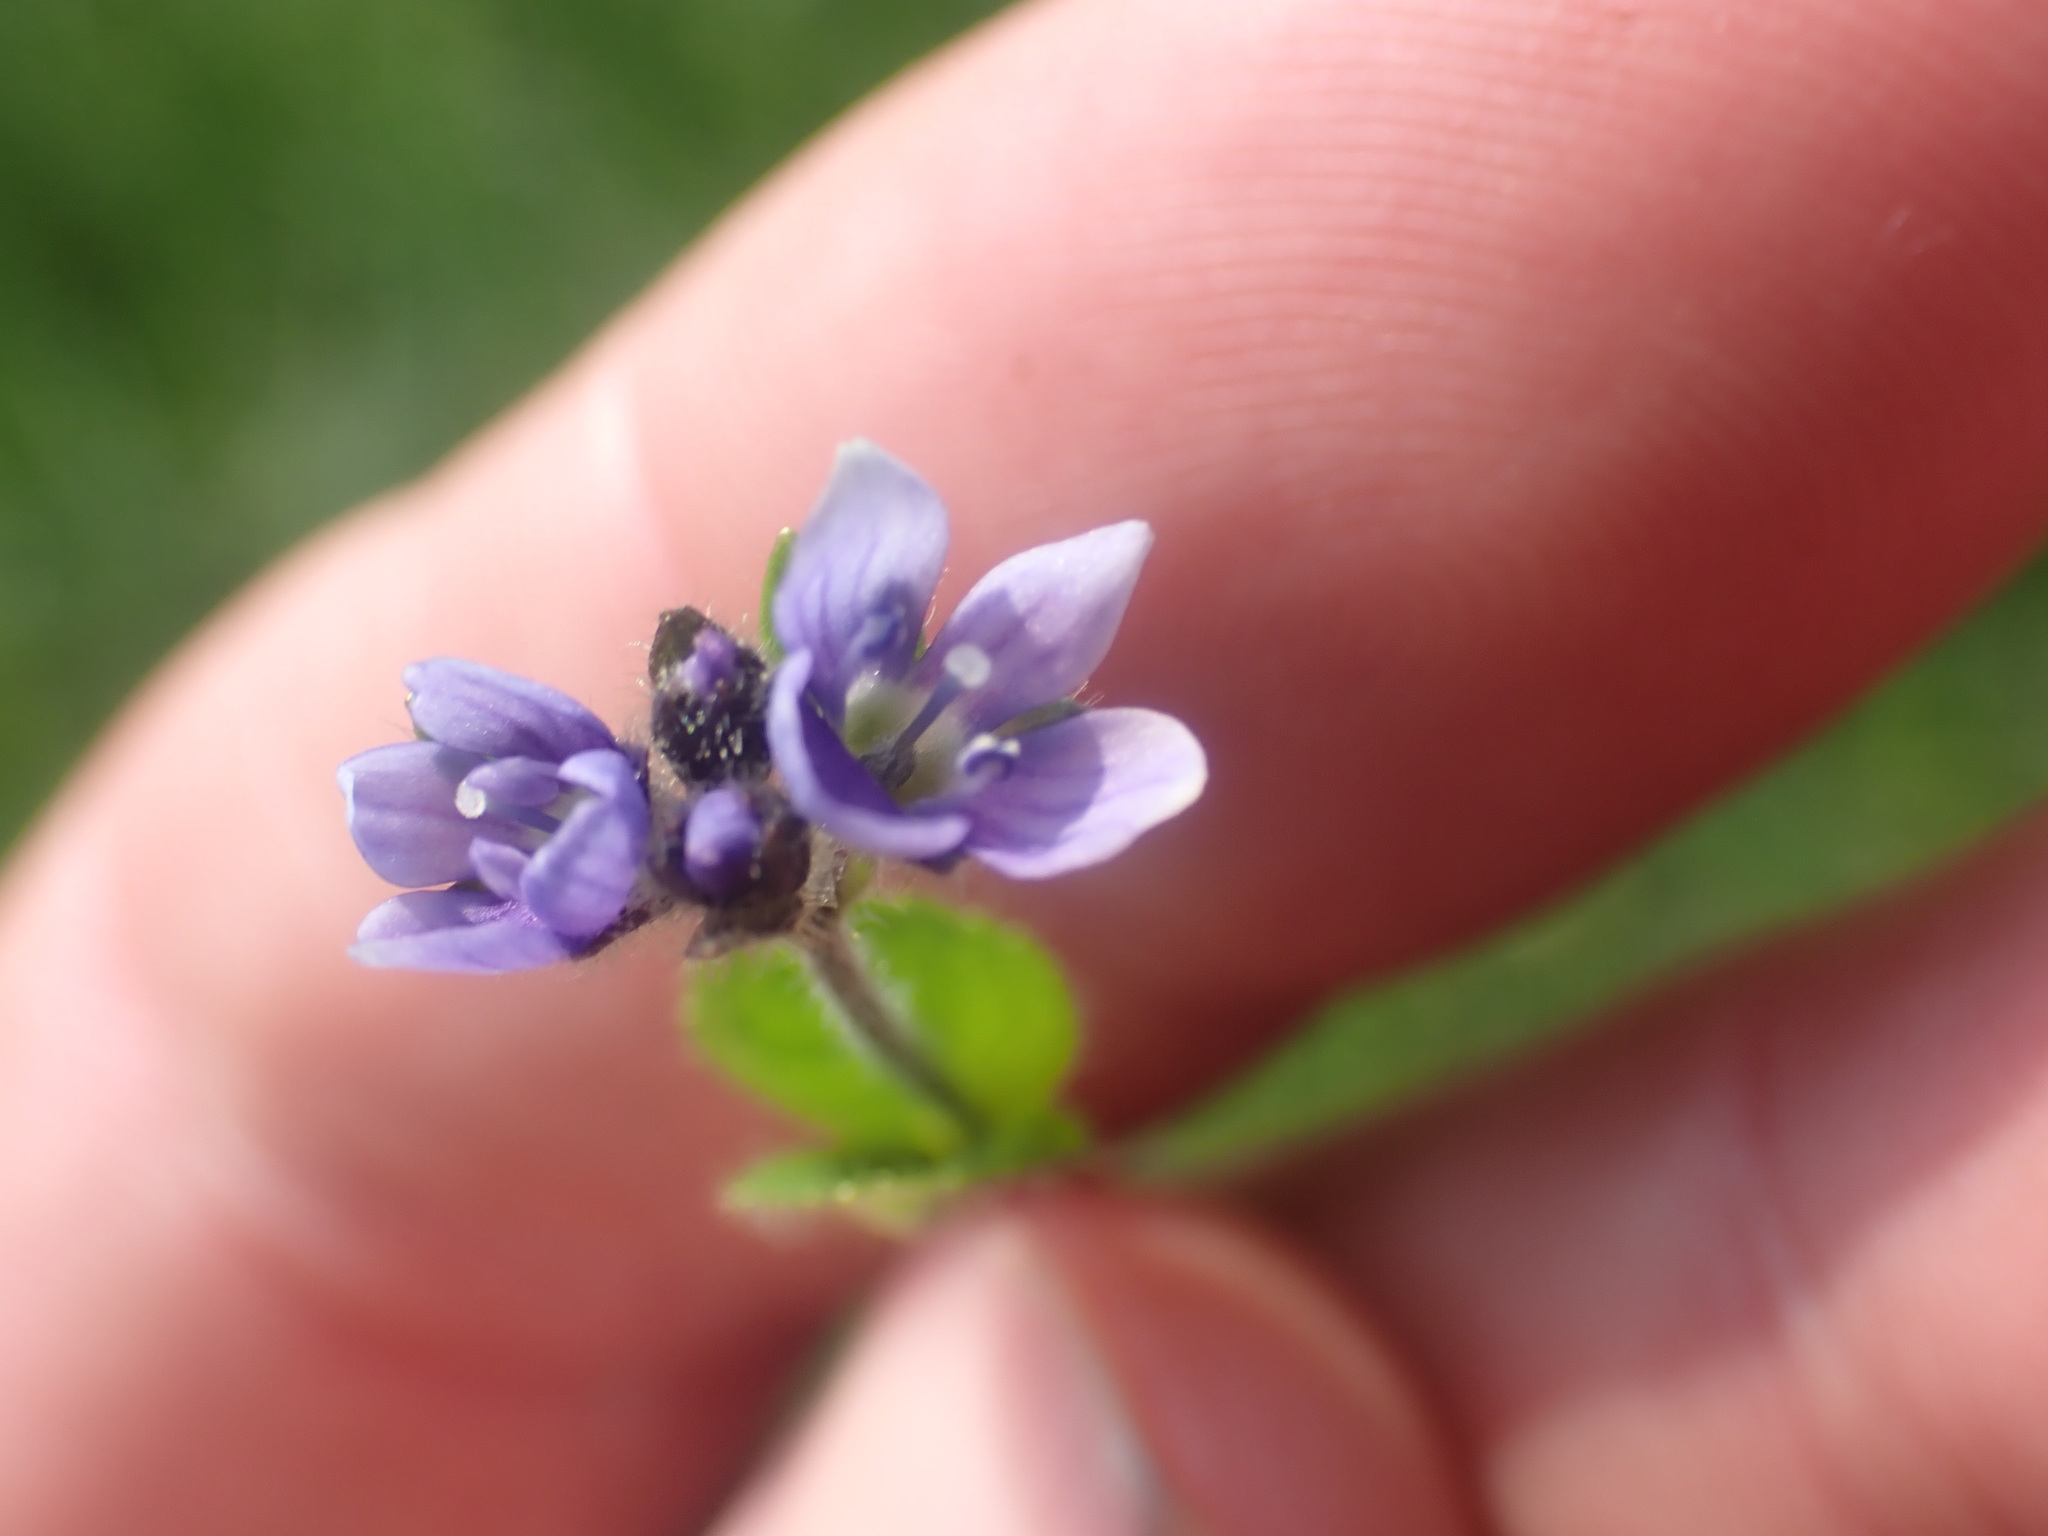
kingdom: Plantae
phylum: Tracheophyta
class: Magnoliopsida
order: Lamiales
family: Plantaginaceae
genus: Veronica
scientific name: Veronica wormskjoldii
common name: American alpine speedwell
